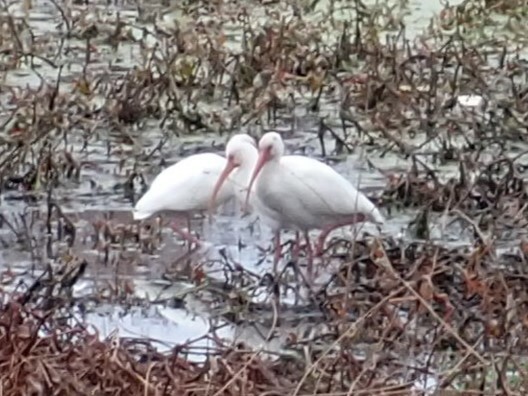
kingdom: Animalia
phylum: Chordata
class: Aves
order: Pelecaniformes
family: Threskiornithidae
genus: Eudocimus
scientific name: Eudocimus albus
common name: White ibis
